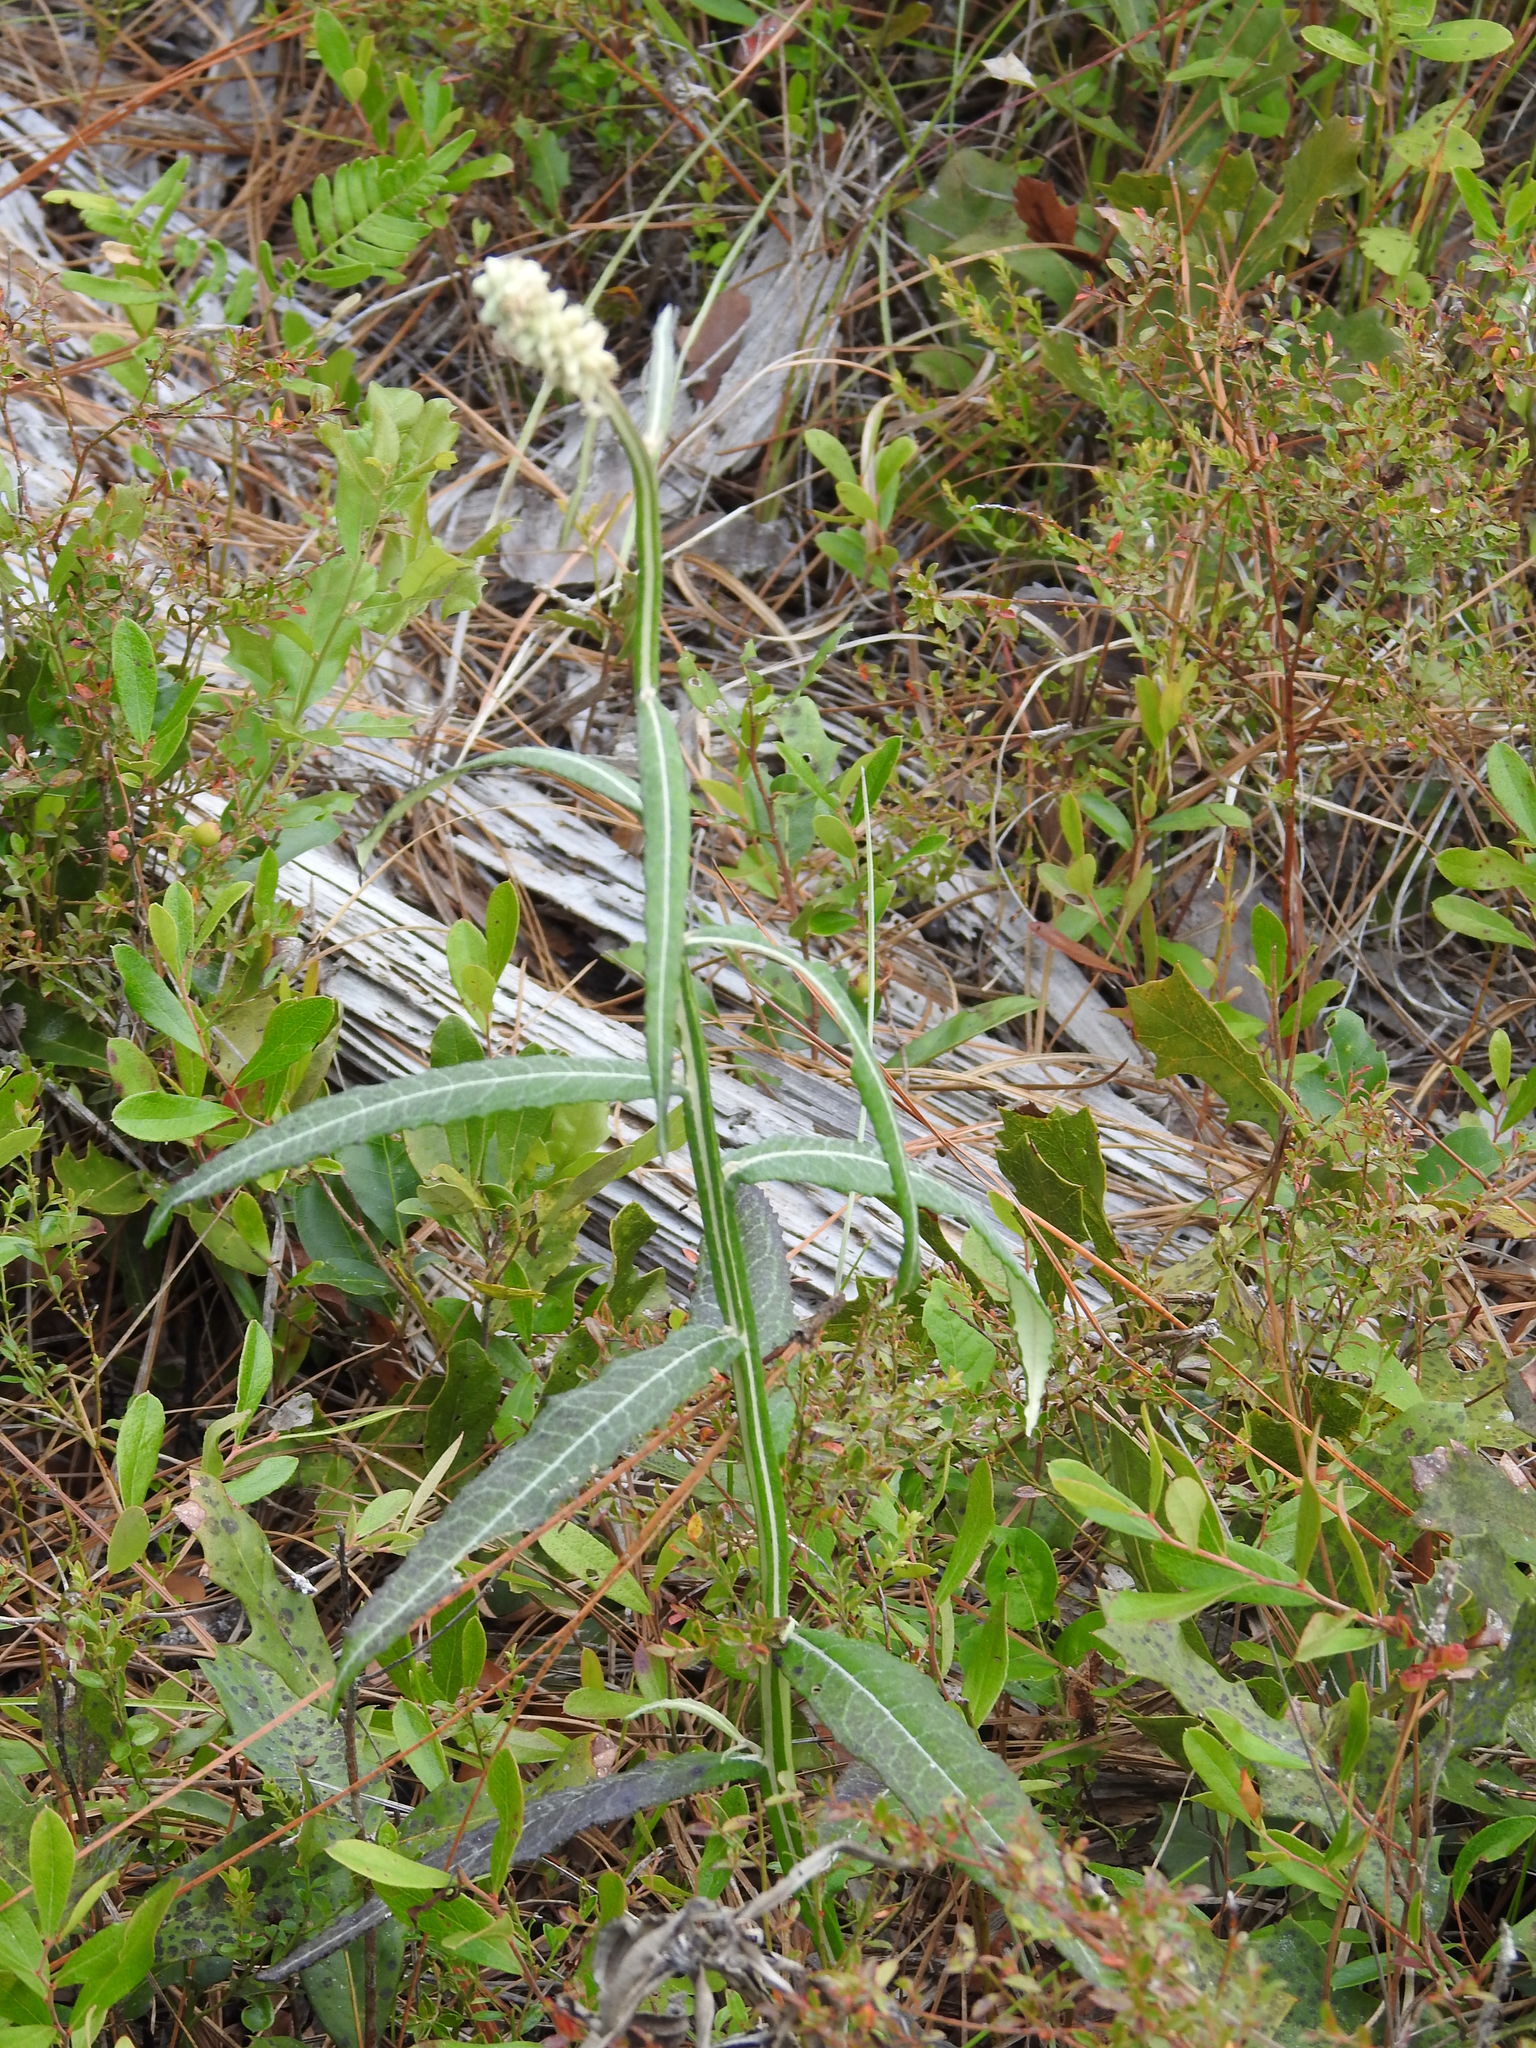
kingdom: Plantae
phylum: Tracheophyta
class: Magnoliopsida
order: Asterales
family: Asteraceae
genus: Pterocaulon
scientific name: Pterocaulon pycnostachyum
